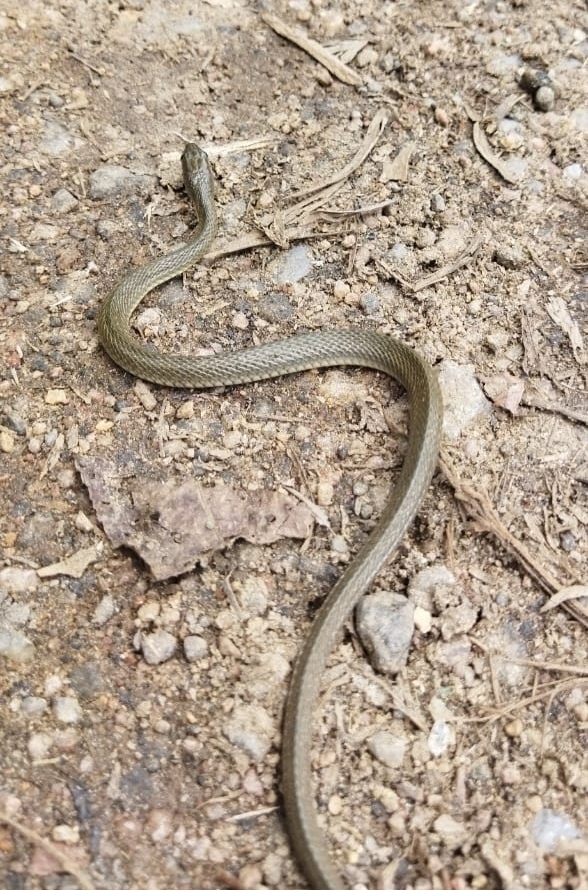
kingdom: Animalia
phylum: Chordata
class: Squamata
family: Colubridae
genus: Fowlea
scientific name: Fowlea piscator
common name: Asiatic water snake
